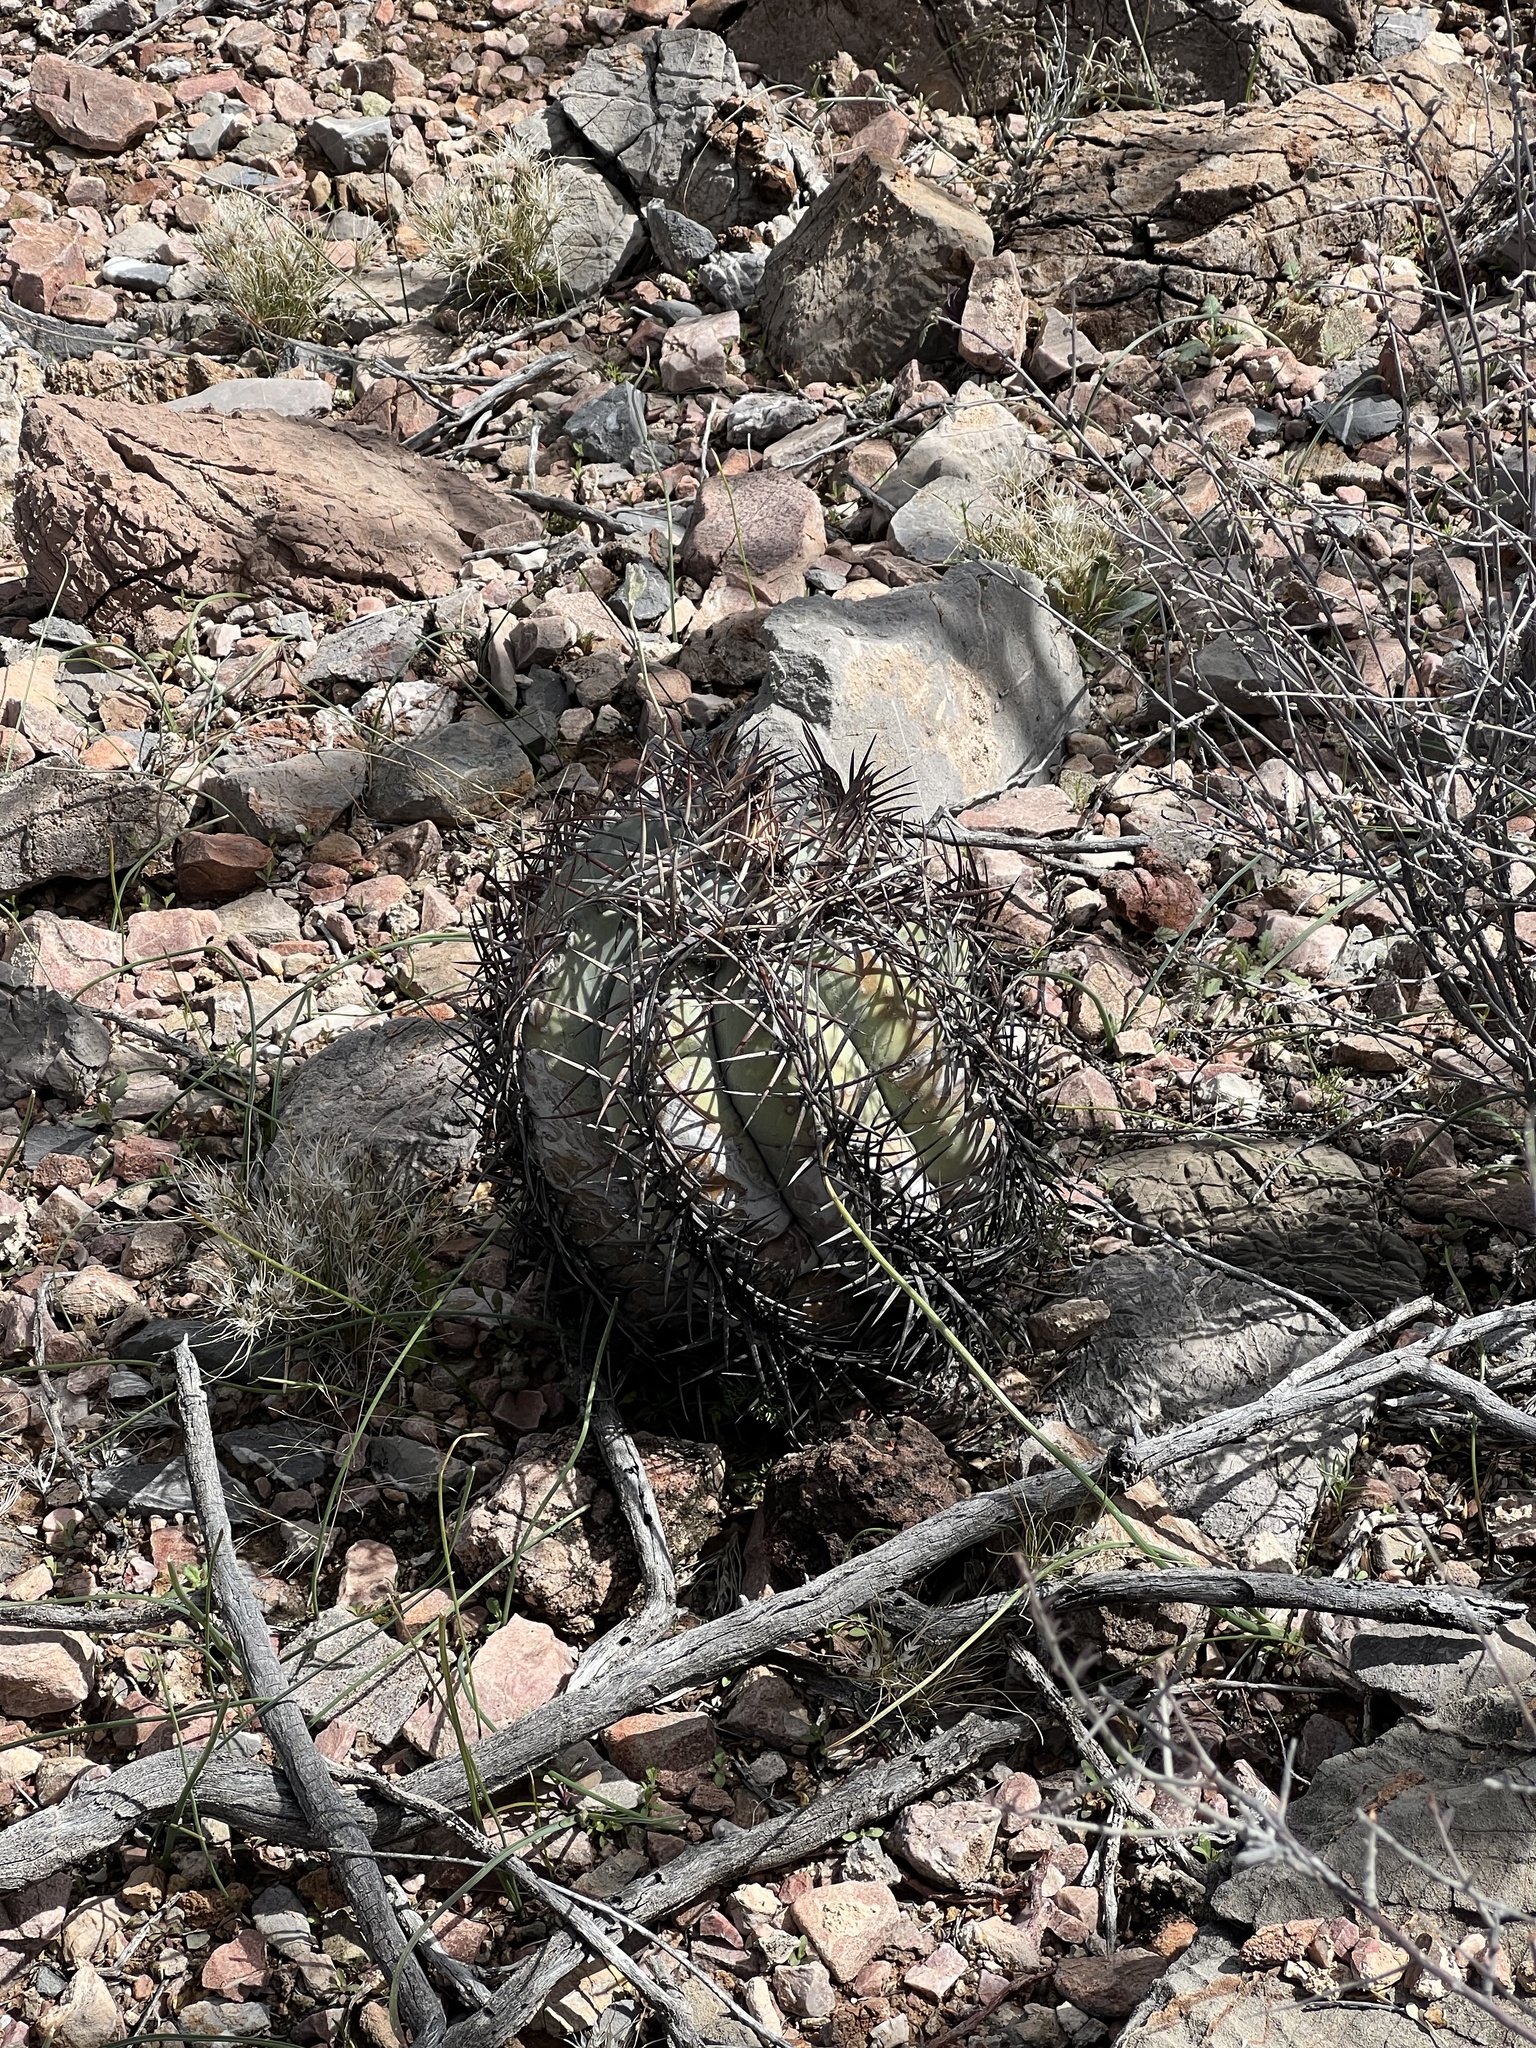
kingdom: Plantae
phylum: Tracheophyta
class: Magnoliopsida
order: Caryophyllales
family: Cactaceae
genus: Echinocactus
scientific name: Echinocactus horizonthalonius
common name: Devilshead
